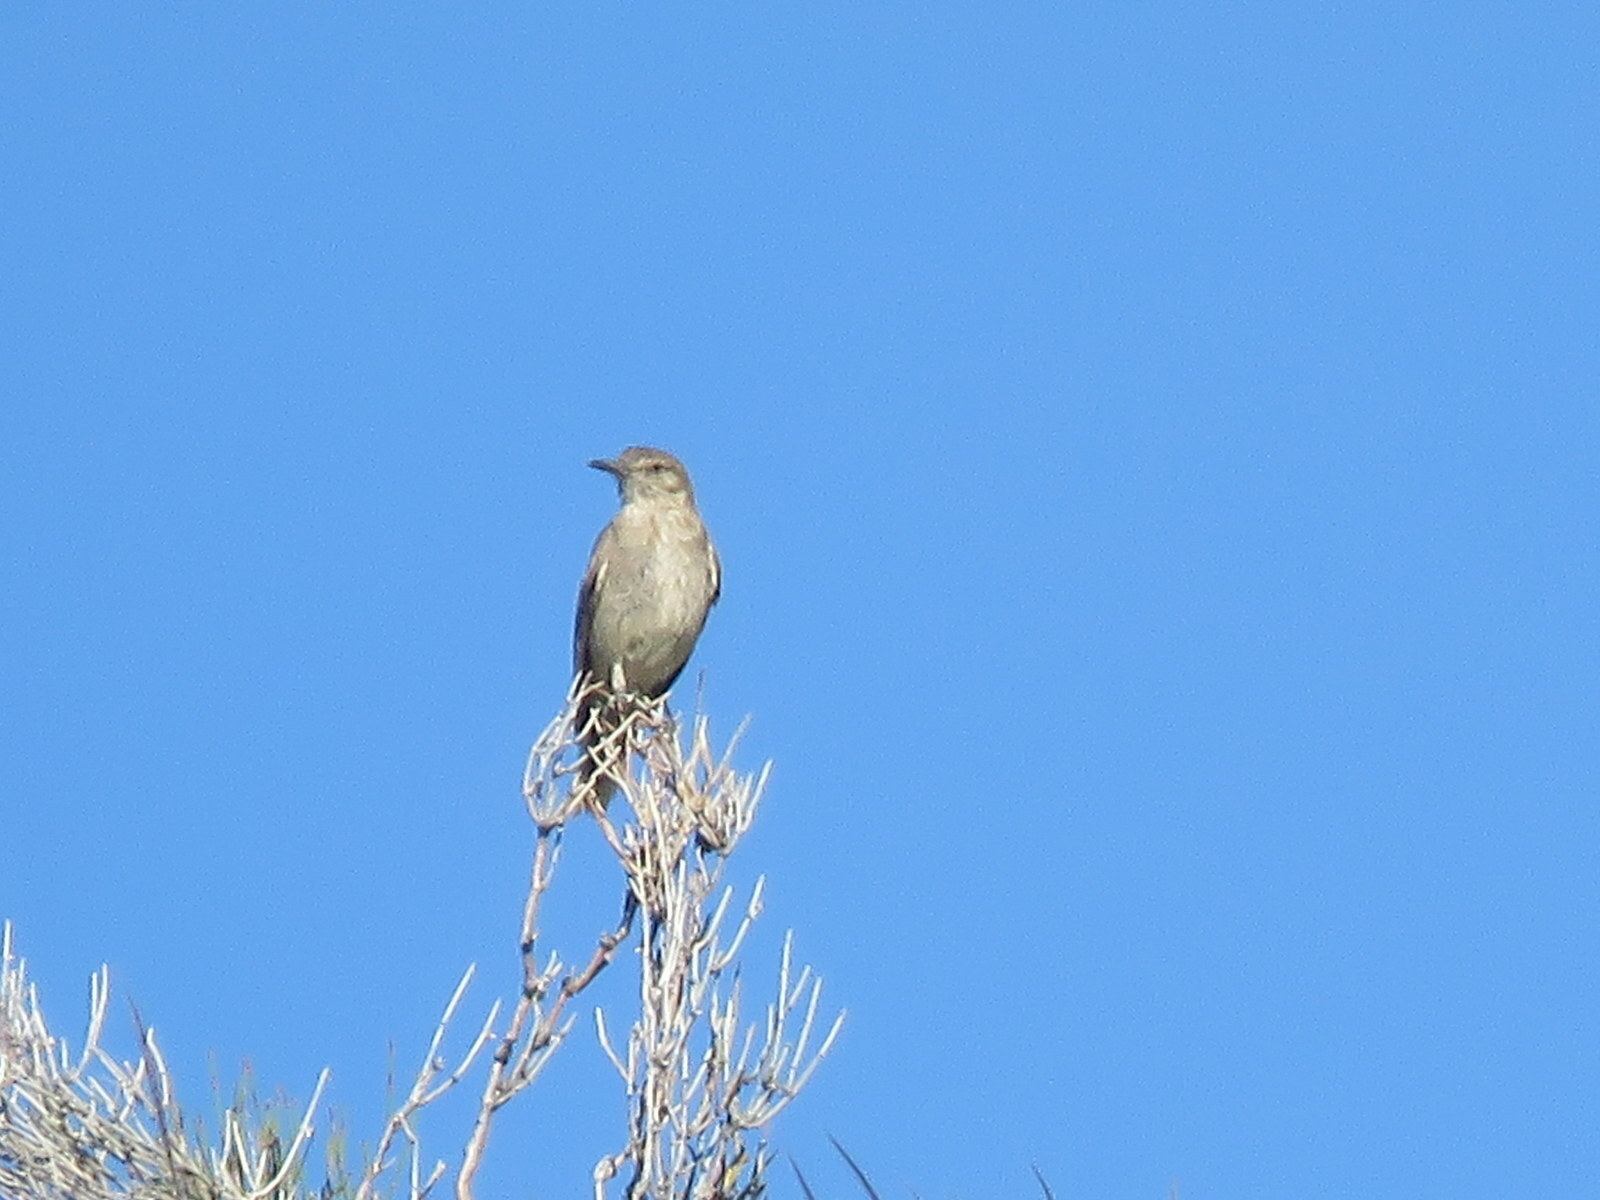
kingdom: Animalia
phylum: Chordata
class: Aves
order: Passeriformes
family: Tyrannidae
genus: Agriornis
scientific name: Agriornis montanus
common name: Black-billed shrike-tyrant
